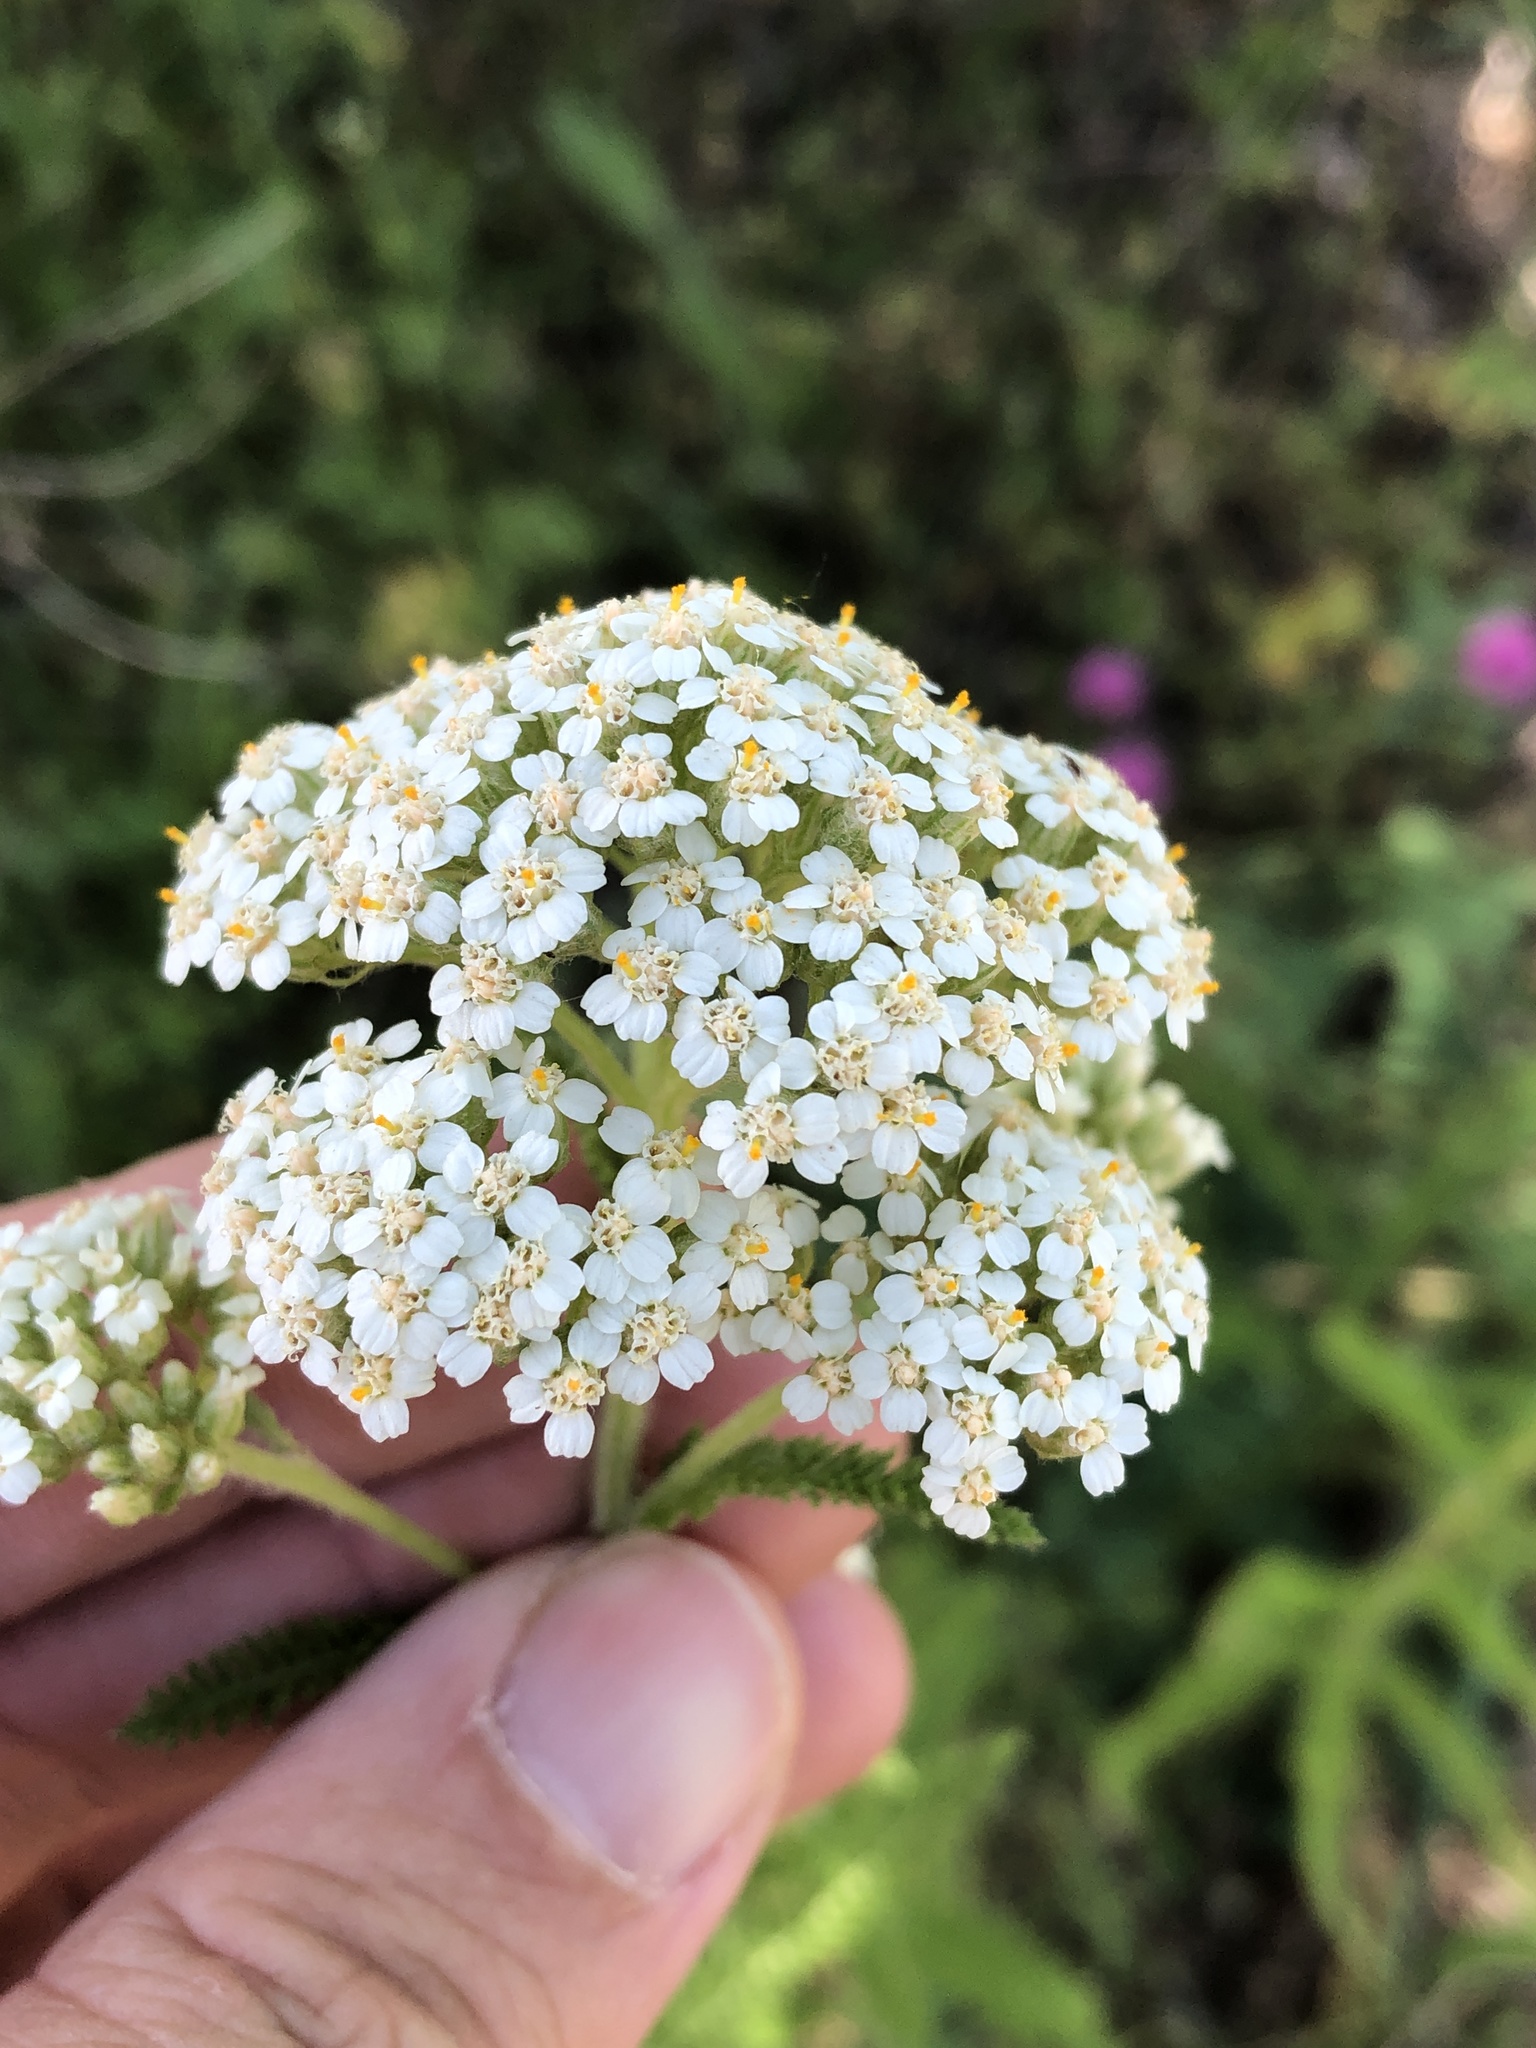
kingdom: Plantae
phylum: Tracheophyta
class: Magnoliopsida
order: Asterales
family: Asteraceae
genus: Achillea
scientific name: Achillea millefolium
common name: Yarrow
